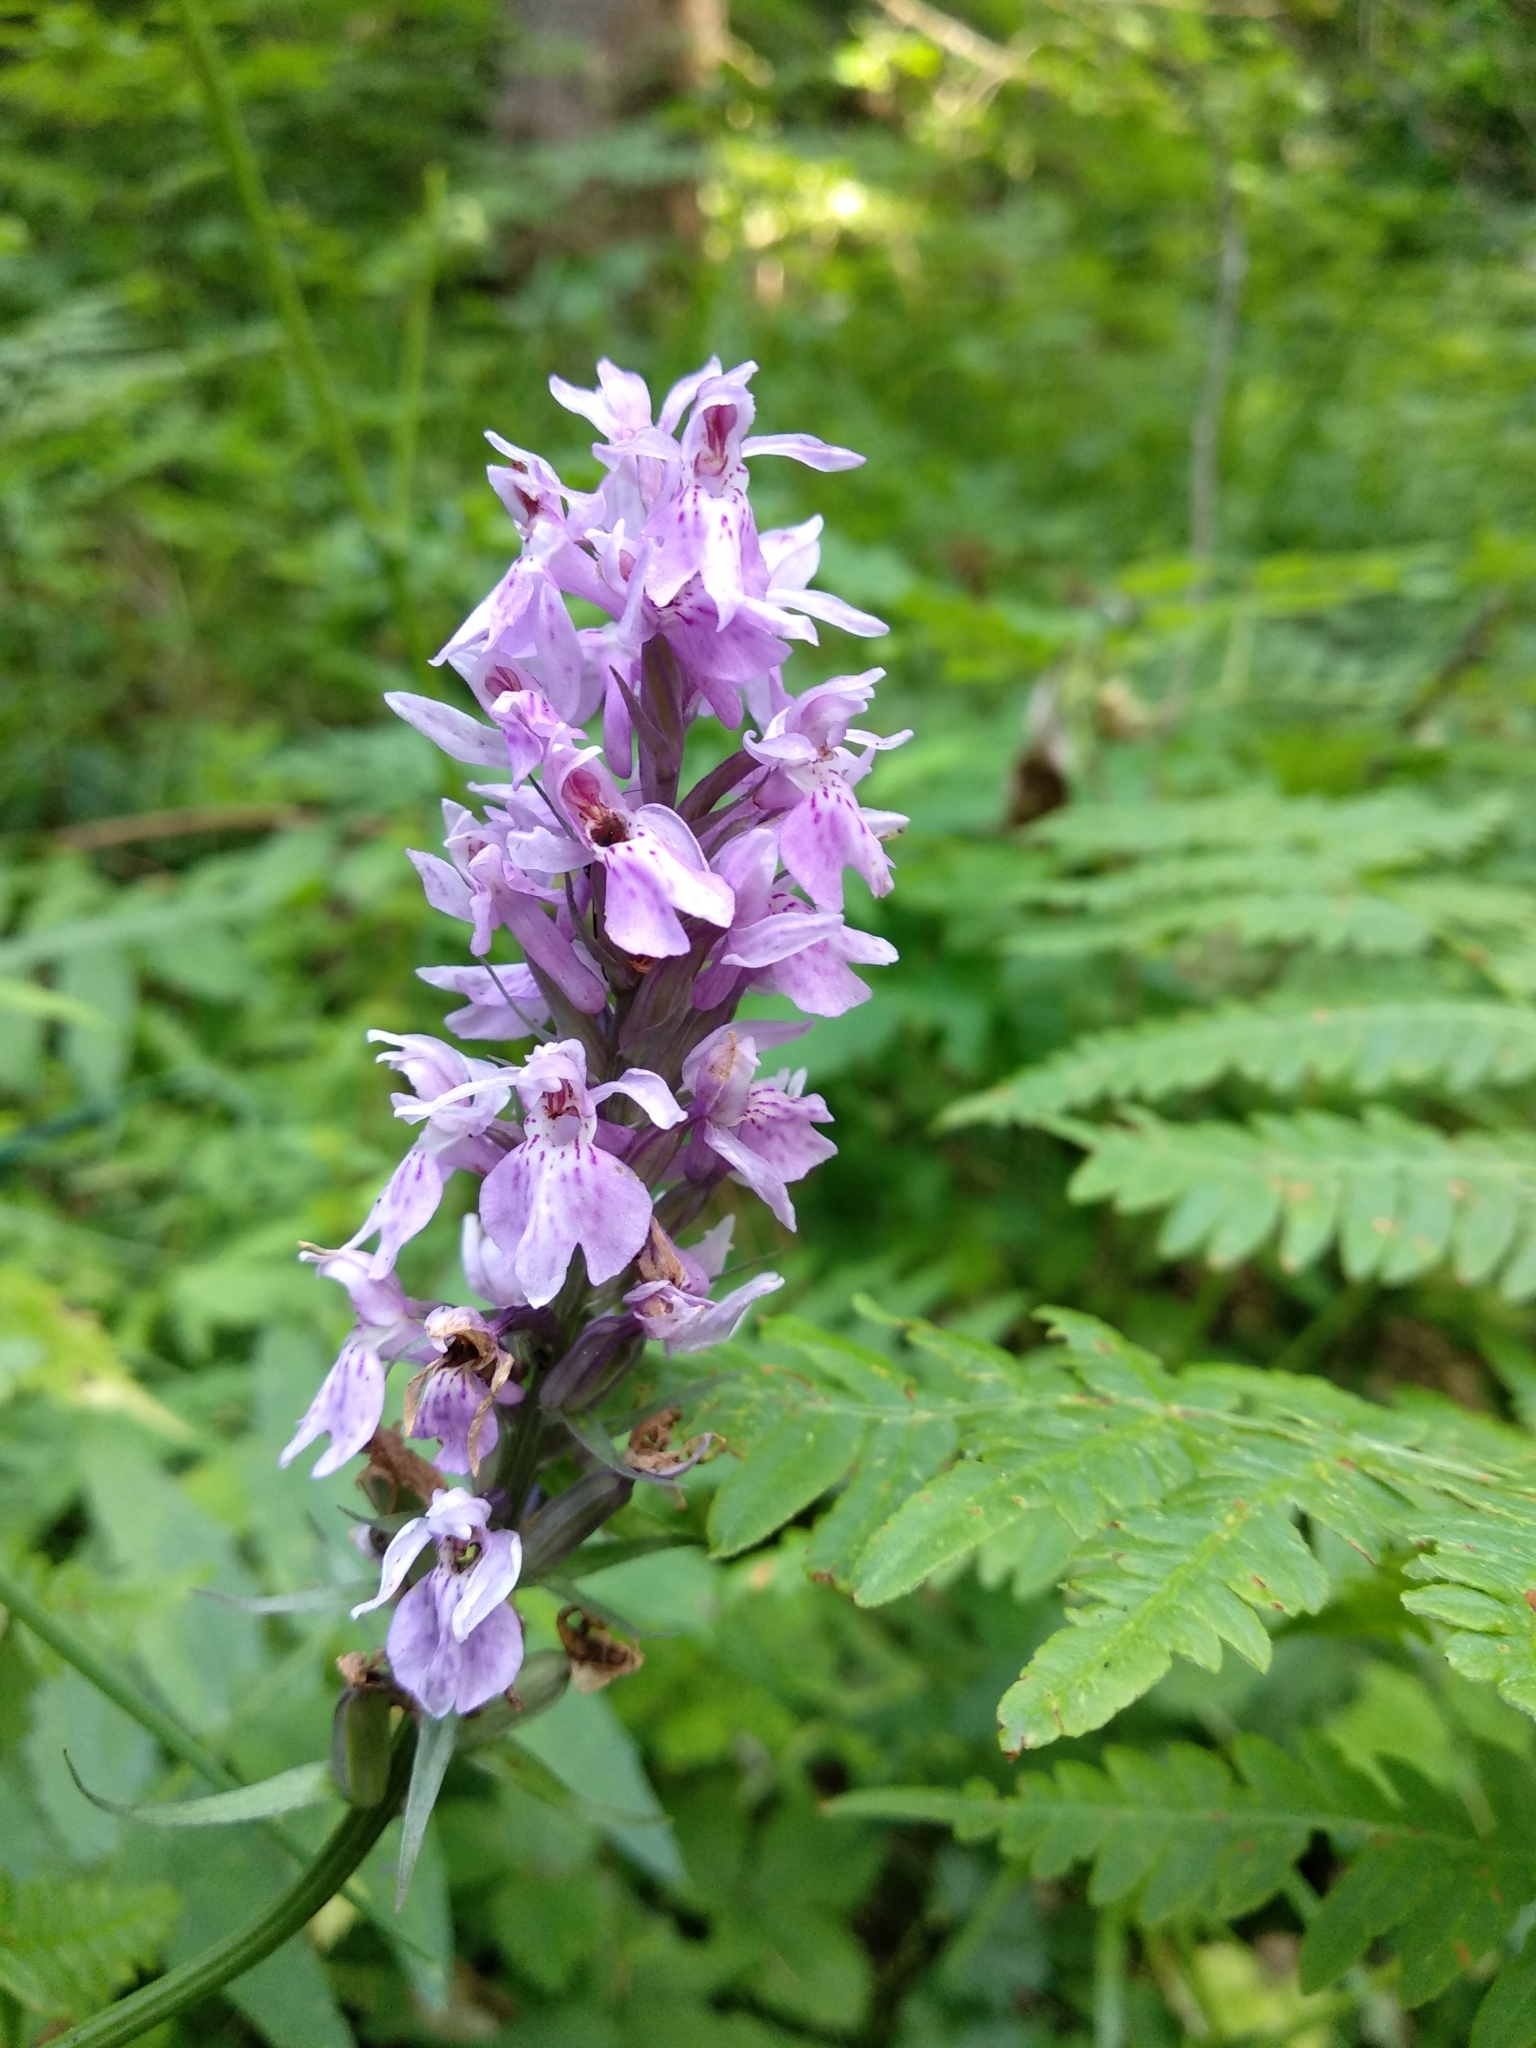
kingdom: Plantae
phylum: Tracheophyta
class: Liliopsida
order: Asparagales
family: Orchidaceae
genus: Dactylorhiza
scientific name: Dactylorhiza maculata
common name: Heath spotted-orchid
